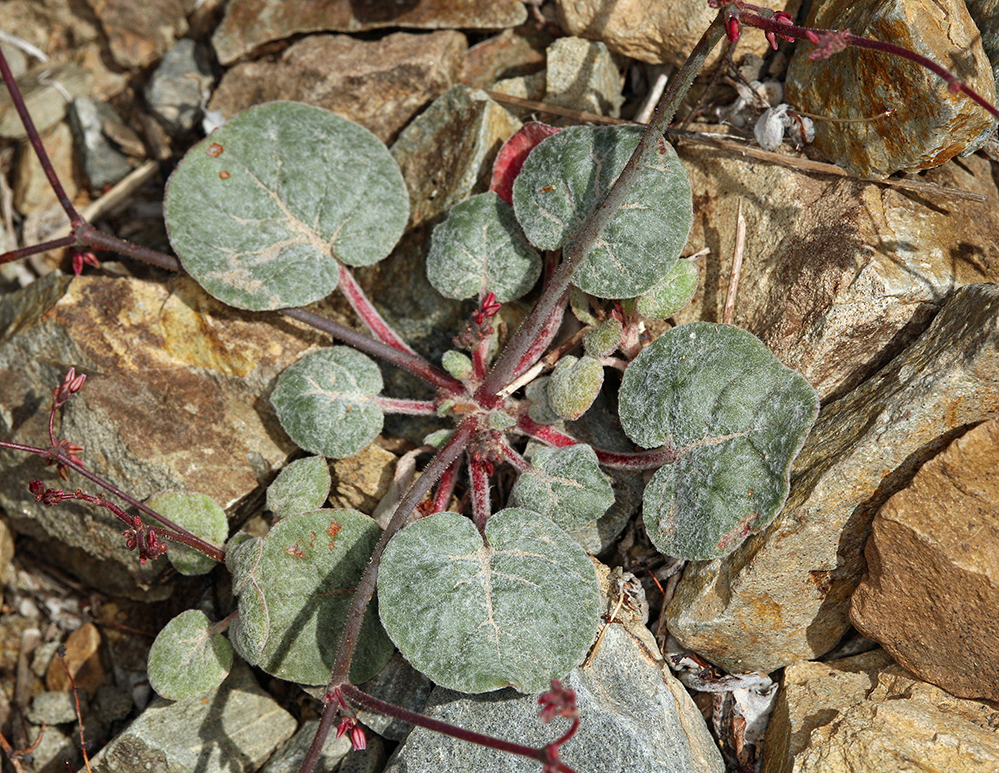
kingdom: Plantae
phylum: Tracheophyta
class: Magnoliopsida
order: Caryophyllales
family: Polygonaceae
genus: Eriogonum
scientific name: Eriogonum eremicola
